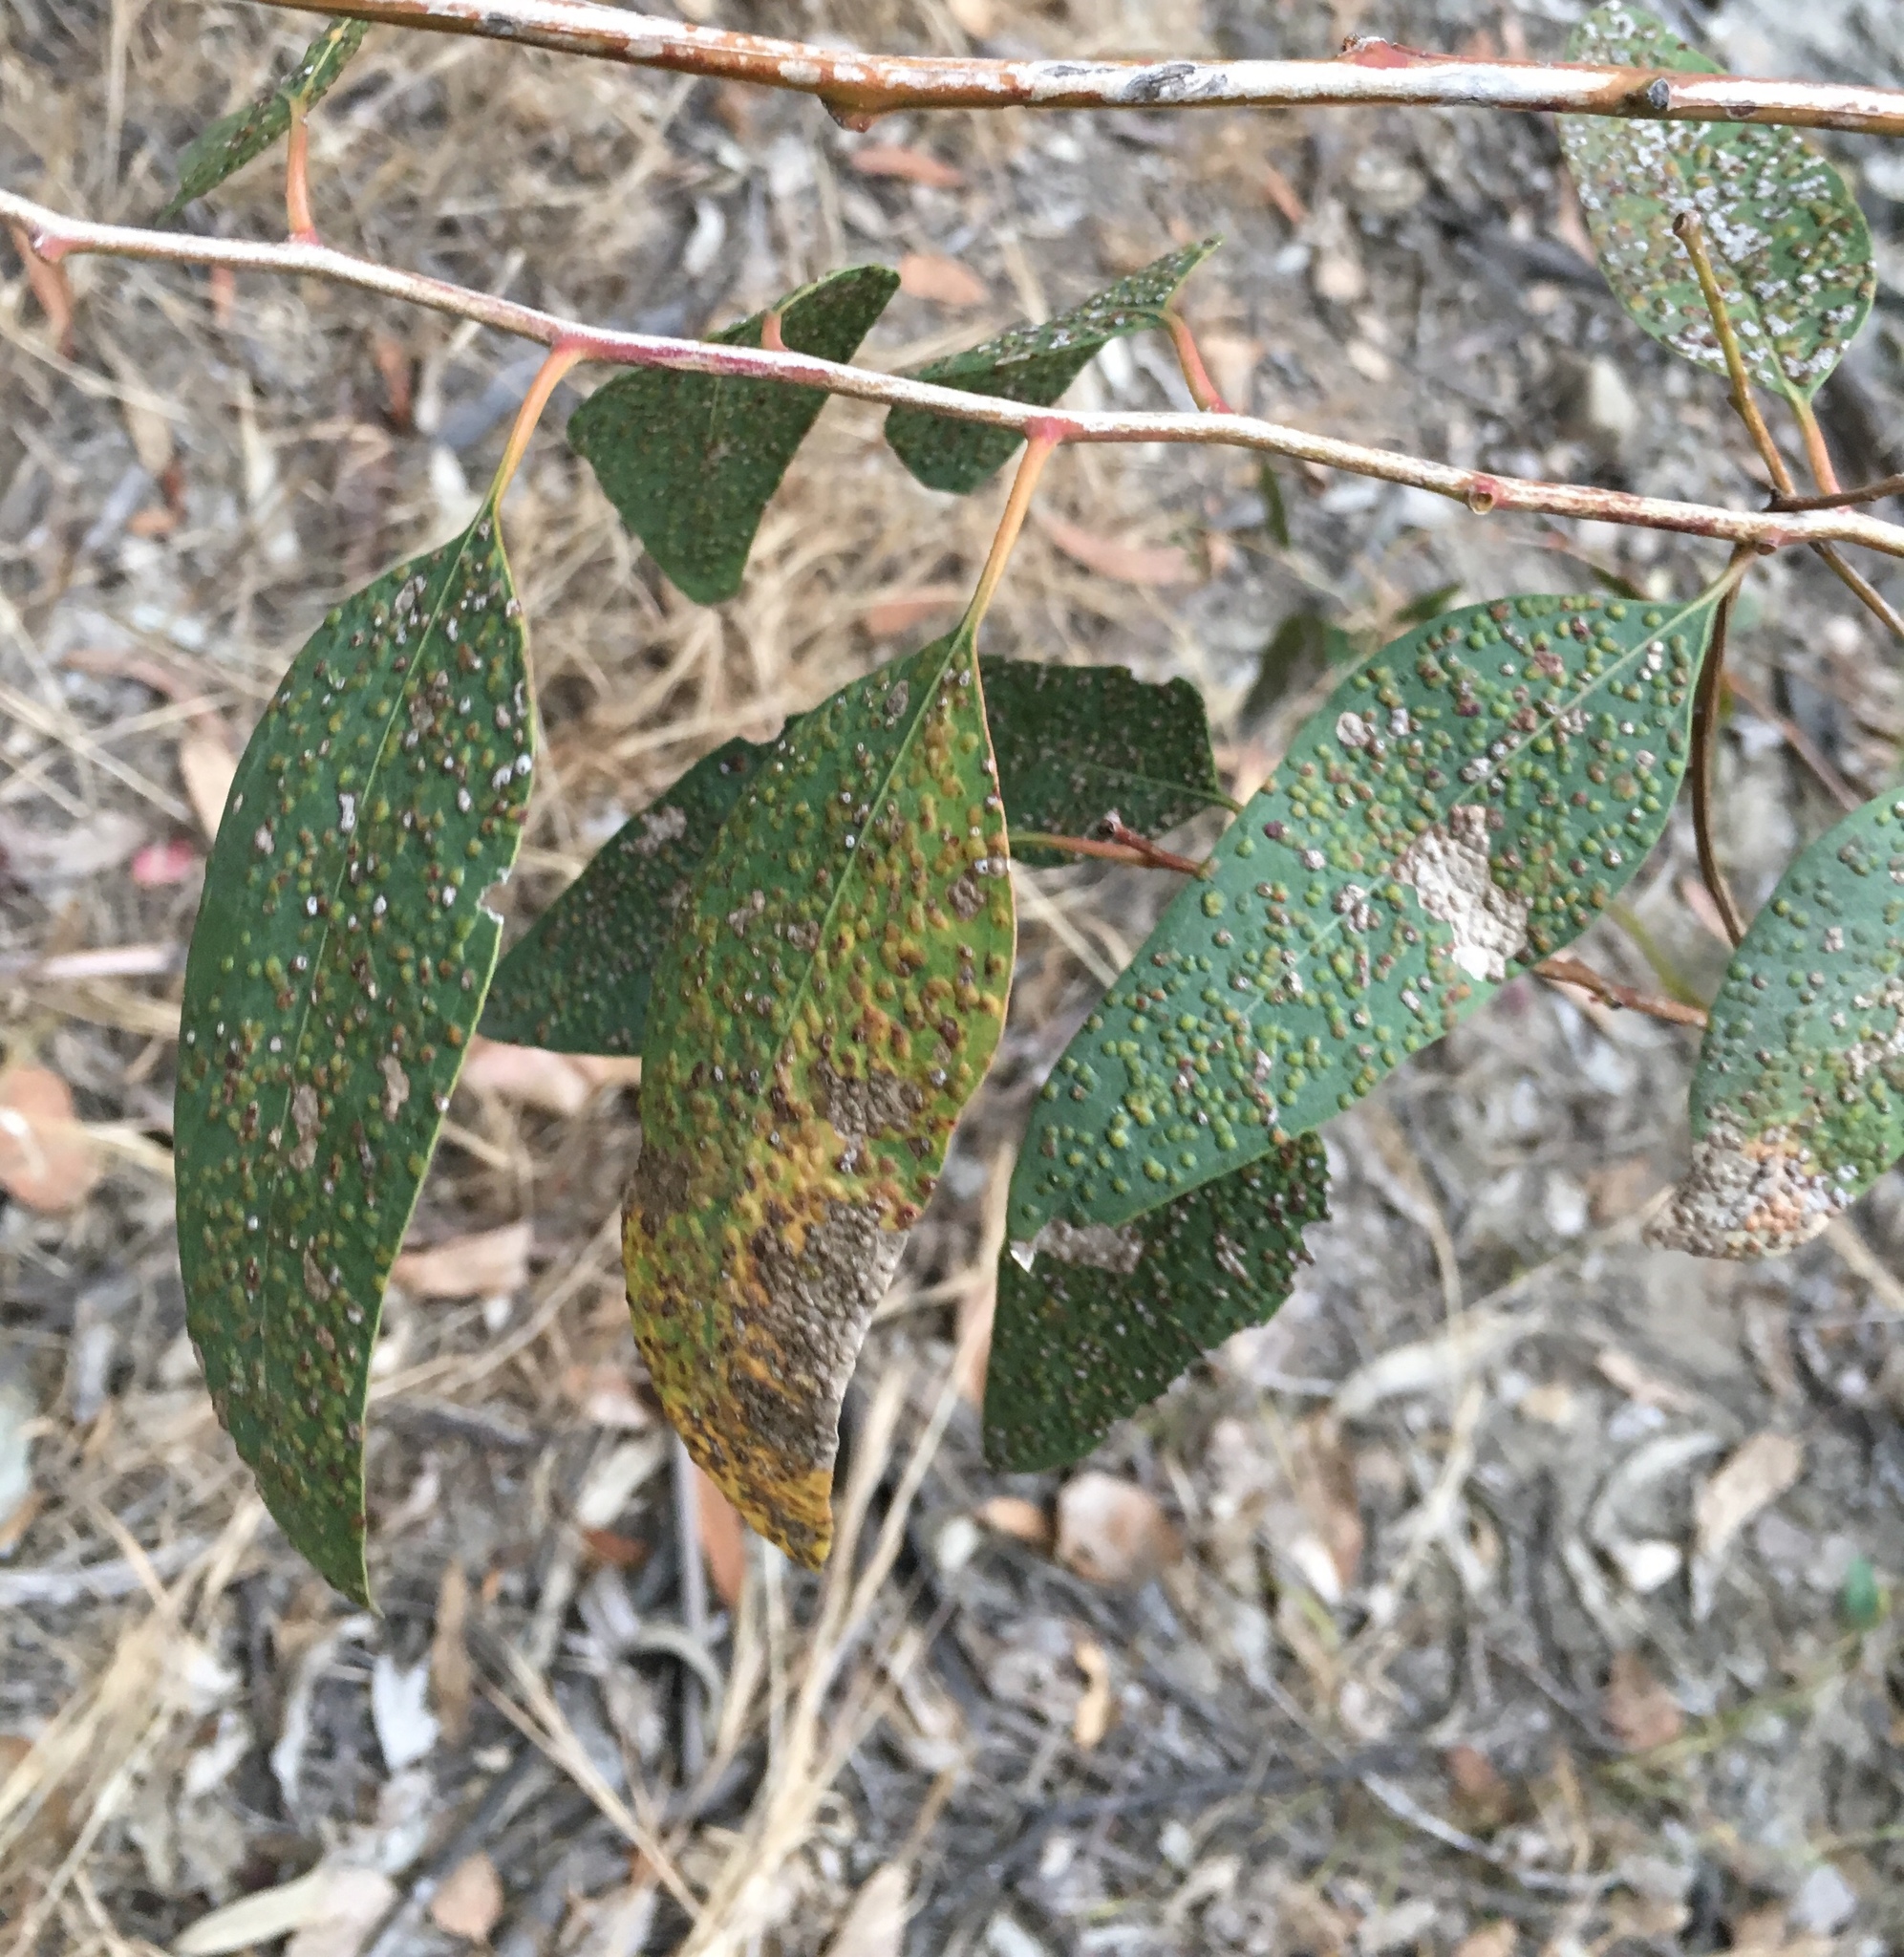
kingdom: Animalia
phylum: Arthropoda
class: Insecta
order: Hymenoptera
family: Eulophidae
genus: Ophelimus
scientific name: Ophelimus maskelli
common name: Gall wasp
